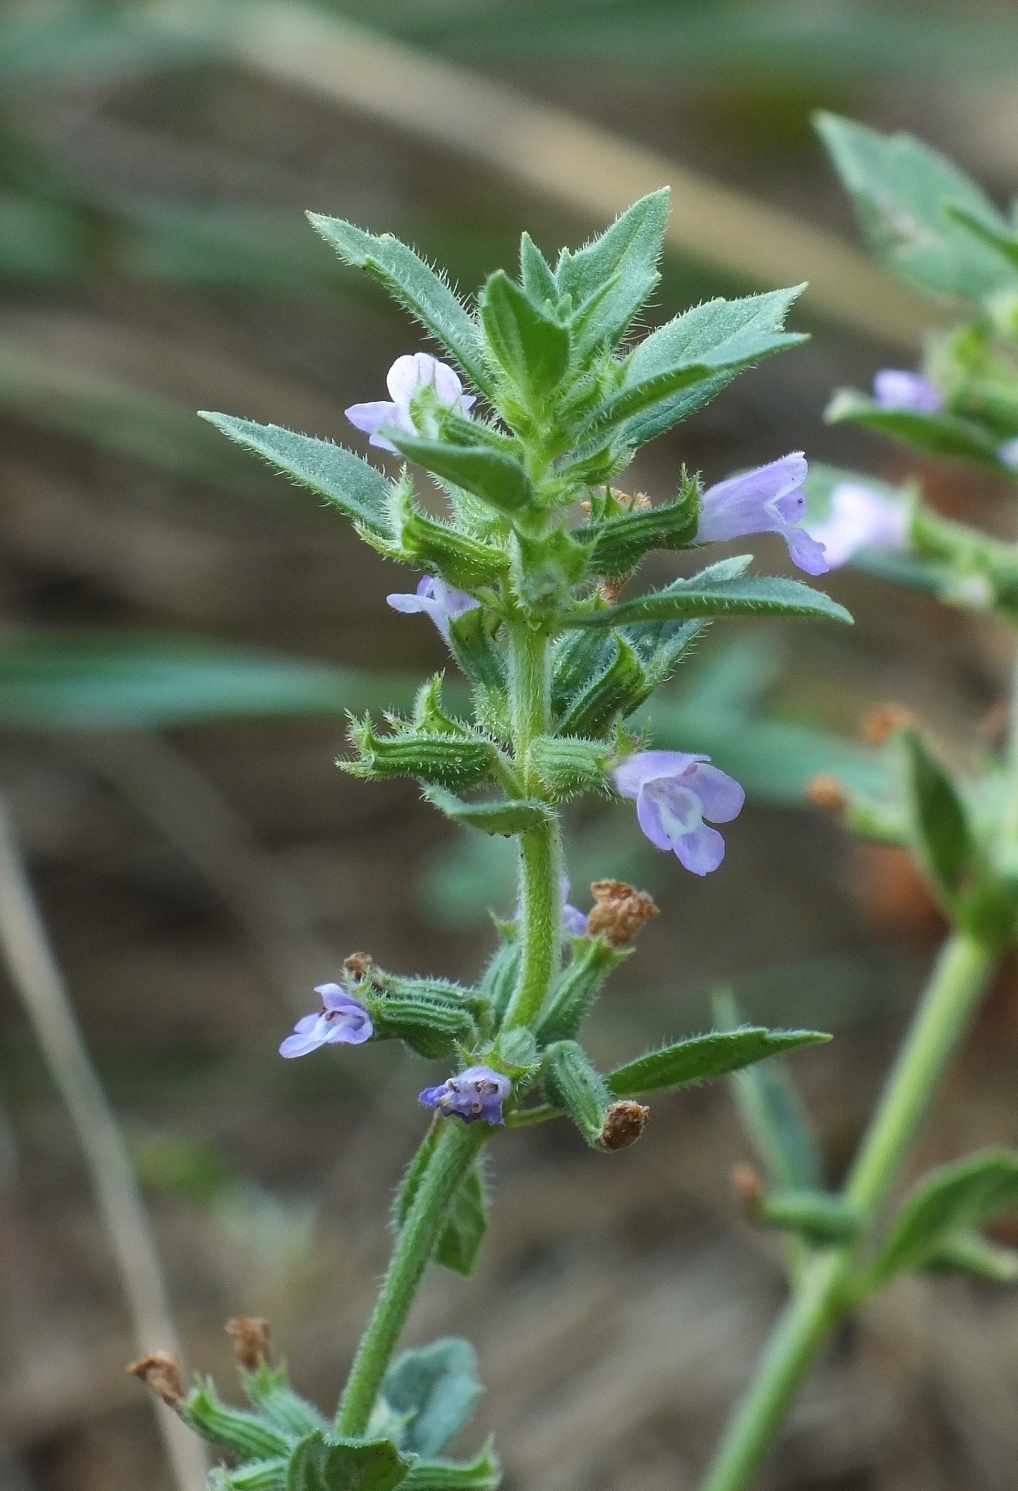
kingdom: Plantae
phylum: Tracheophyta
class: Magnoliopsida
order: Lamiales
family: Lamiaceae
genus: Clinopodium
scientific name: Clinopodium acinos
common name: Basil thyme
